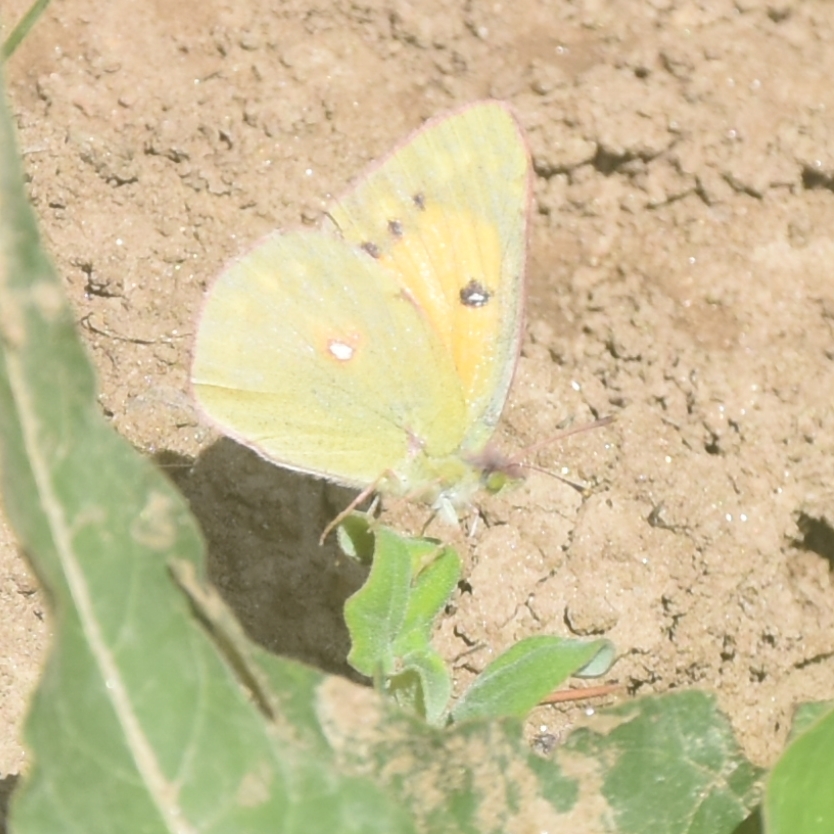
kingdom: Animalia
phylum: Arthropoda
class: Insecta
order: Lepidoptera
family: Pieridae
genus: Colias
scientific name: Colias fieldii
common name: Dark clouded yellow
